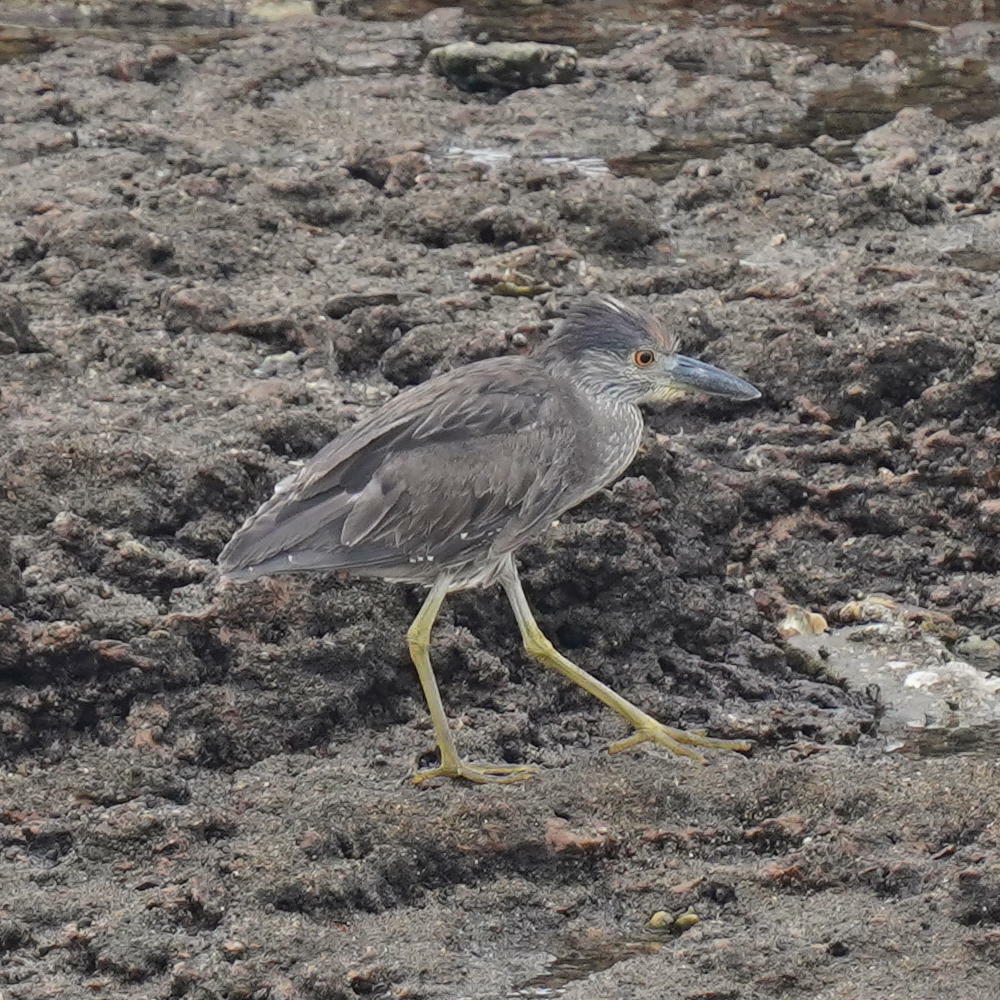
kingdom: Animalia
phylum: Chordata
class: Aves
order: Pelecaniformes
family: Ardeidae
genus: Nyctanassa
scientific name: Nyctanassa violacea
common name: Yellow-crowned night heron
